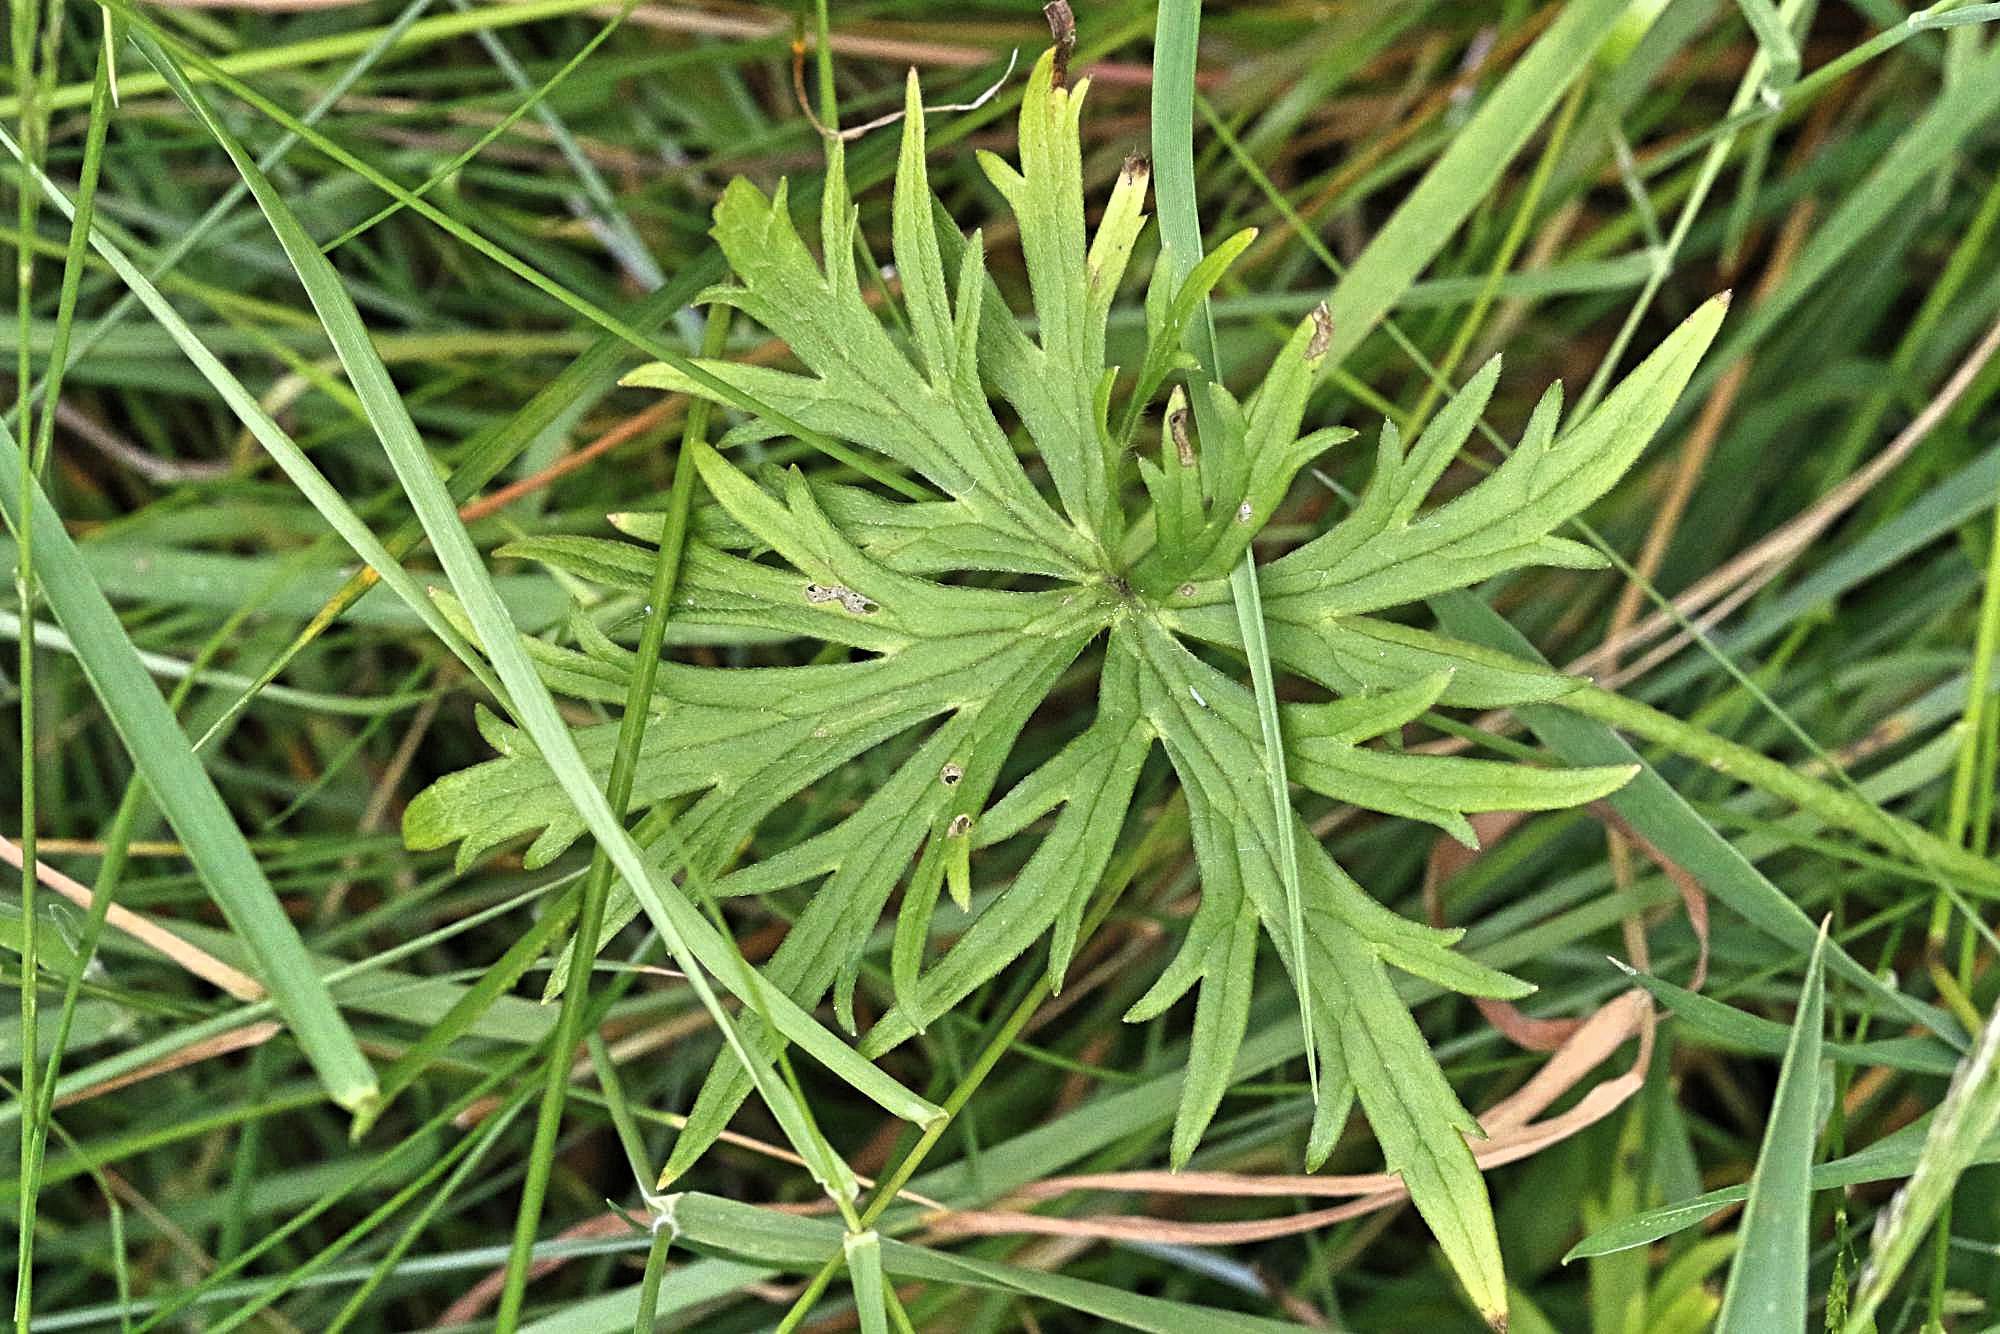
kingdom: Plantae
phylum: Tracheophyta
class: Magnoliopsida
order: Ranunculales
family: Ranunculaceae
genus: Ranunculus
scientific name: Ranunculus acris
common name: Meadow buttercup
